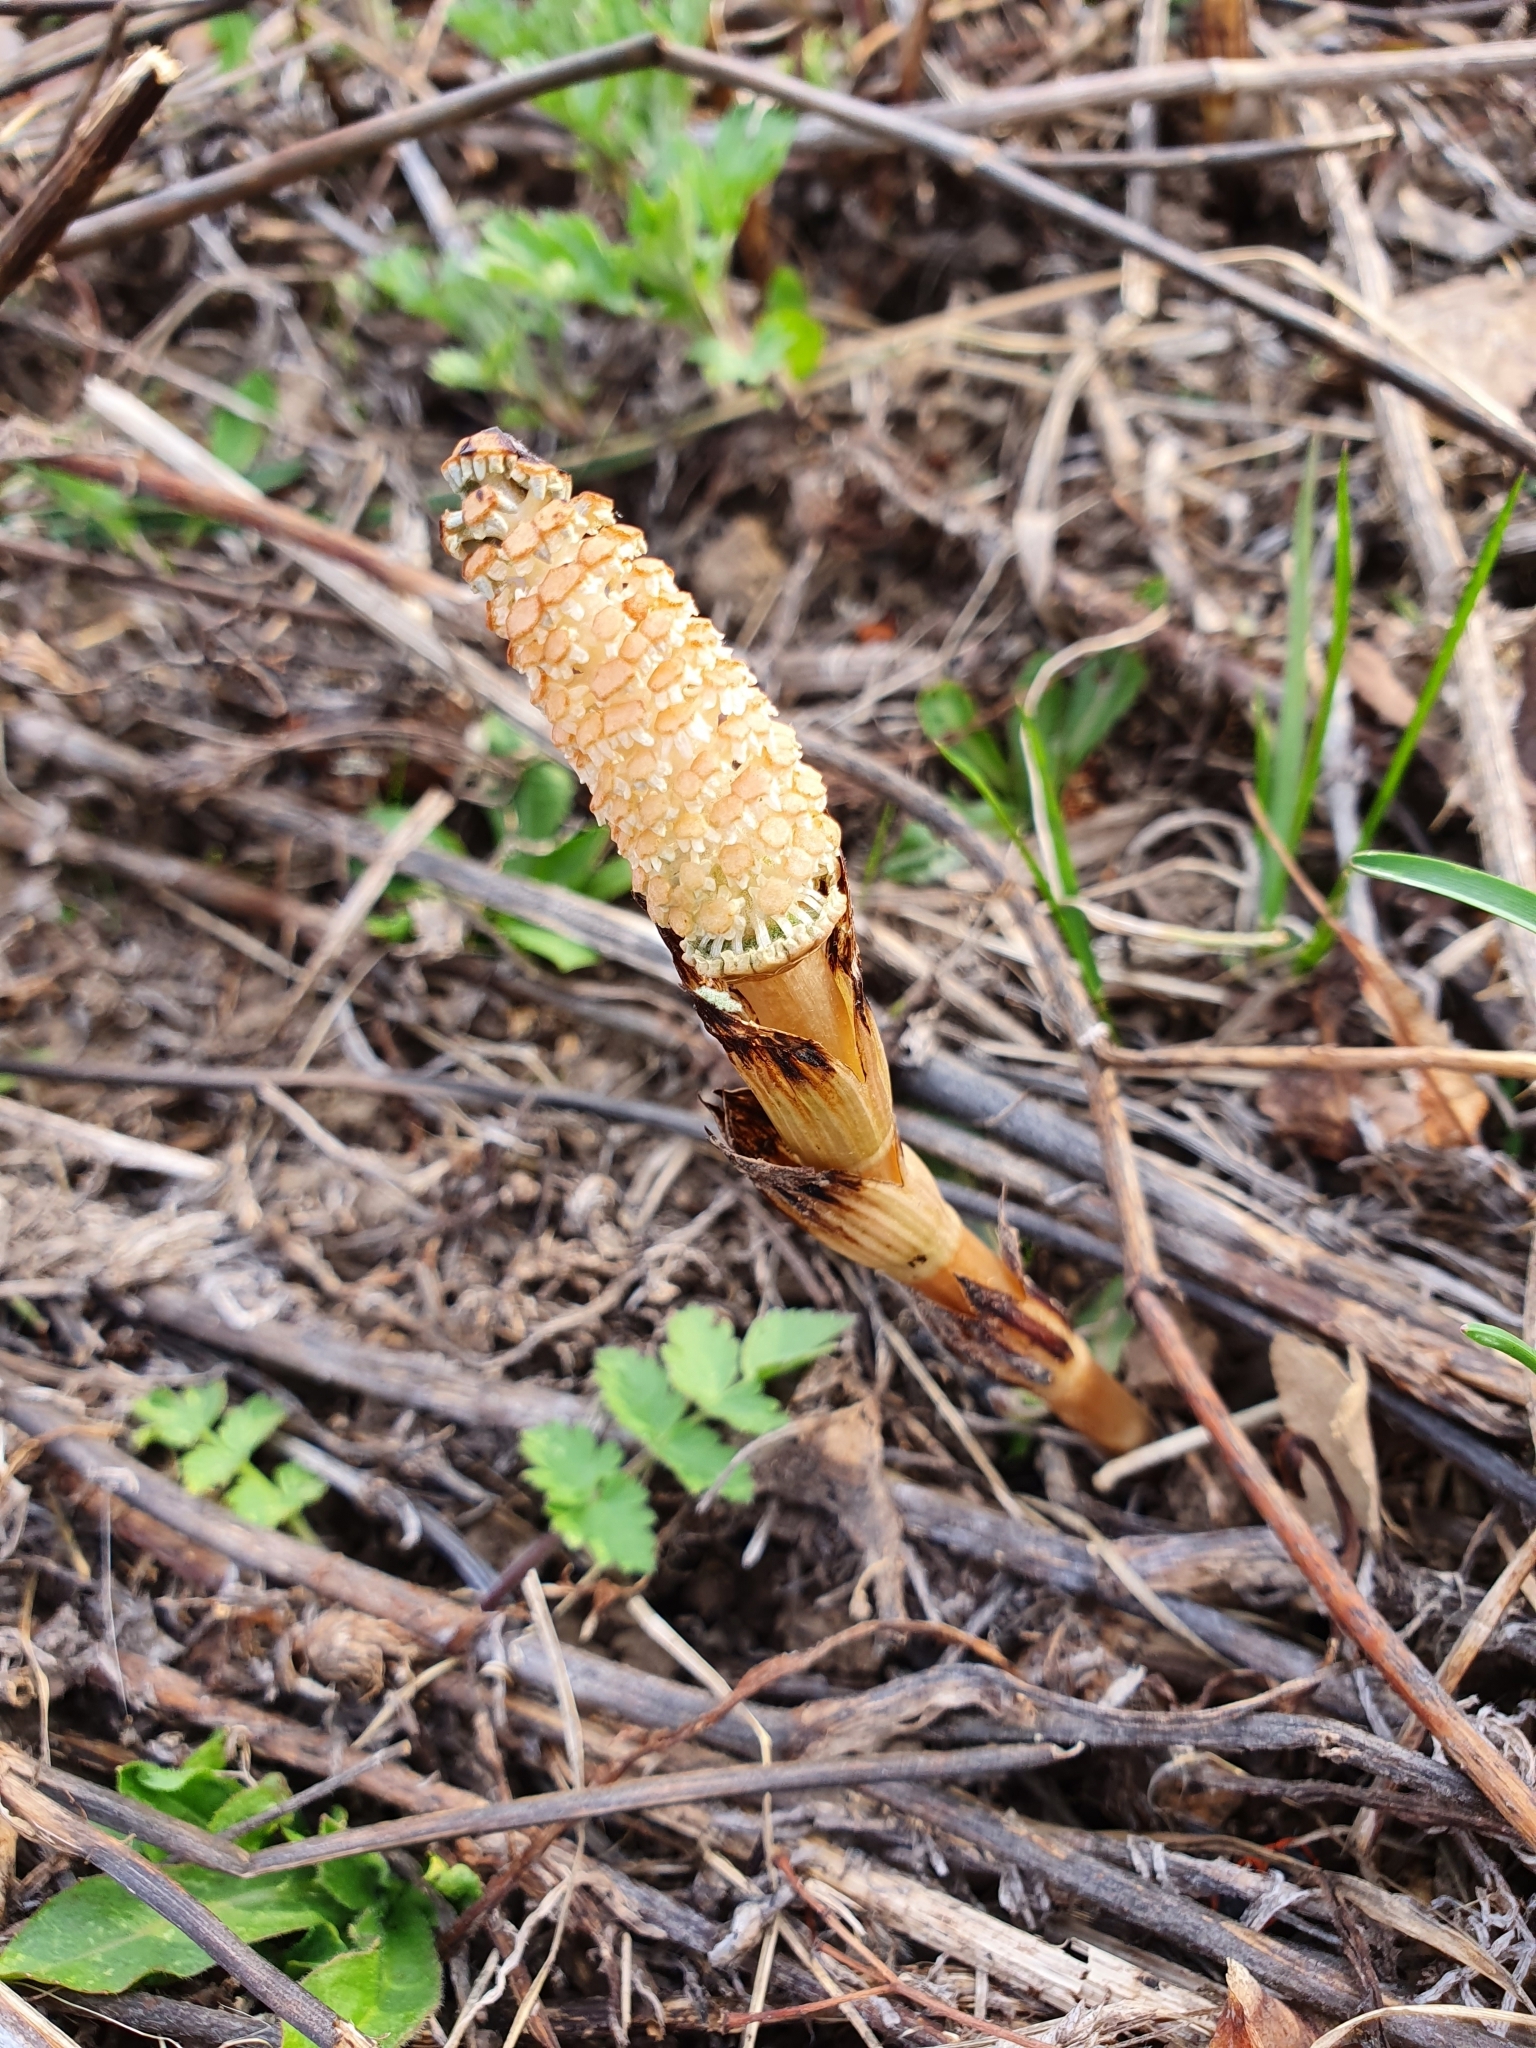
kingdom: Plantae
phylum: Tracheophyta
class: Polypodiopsida
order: Equisetales
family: Equisetaceae
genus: Equisetum
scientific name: Equisetum arvense
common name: Field horsetail
